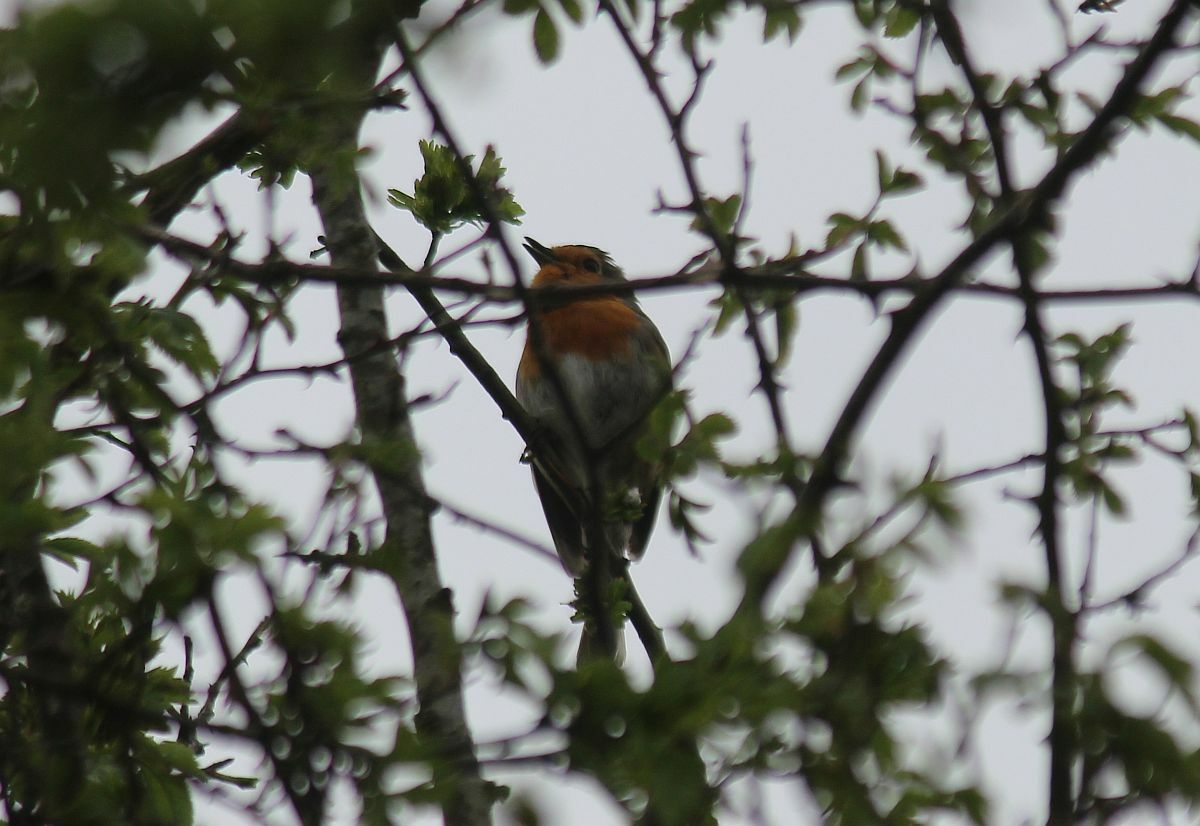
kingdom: Animalia
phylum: Chordata
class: Aves
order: Passeriformes
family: Muscicapidae
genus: Erithacus
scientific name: Erithacus rubecula
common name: European robin
